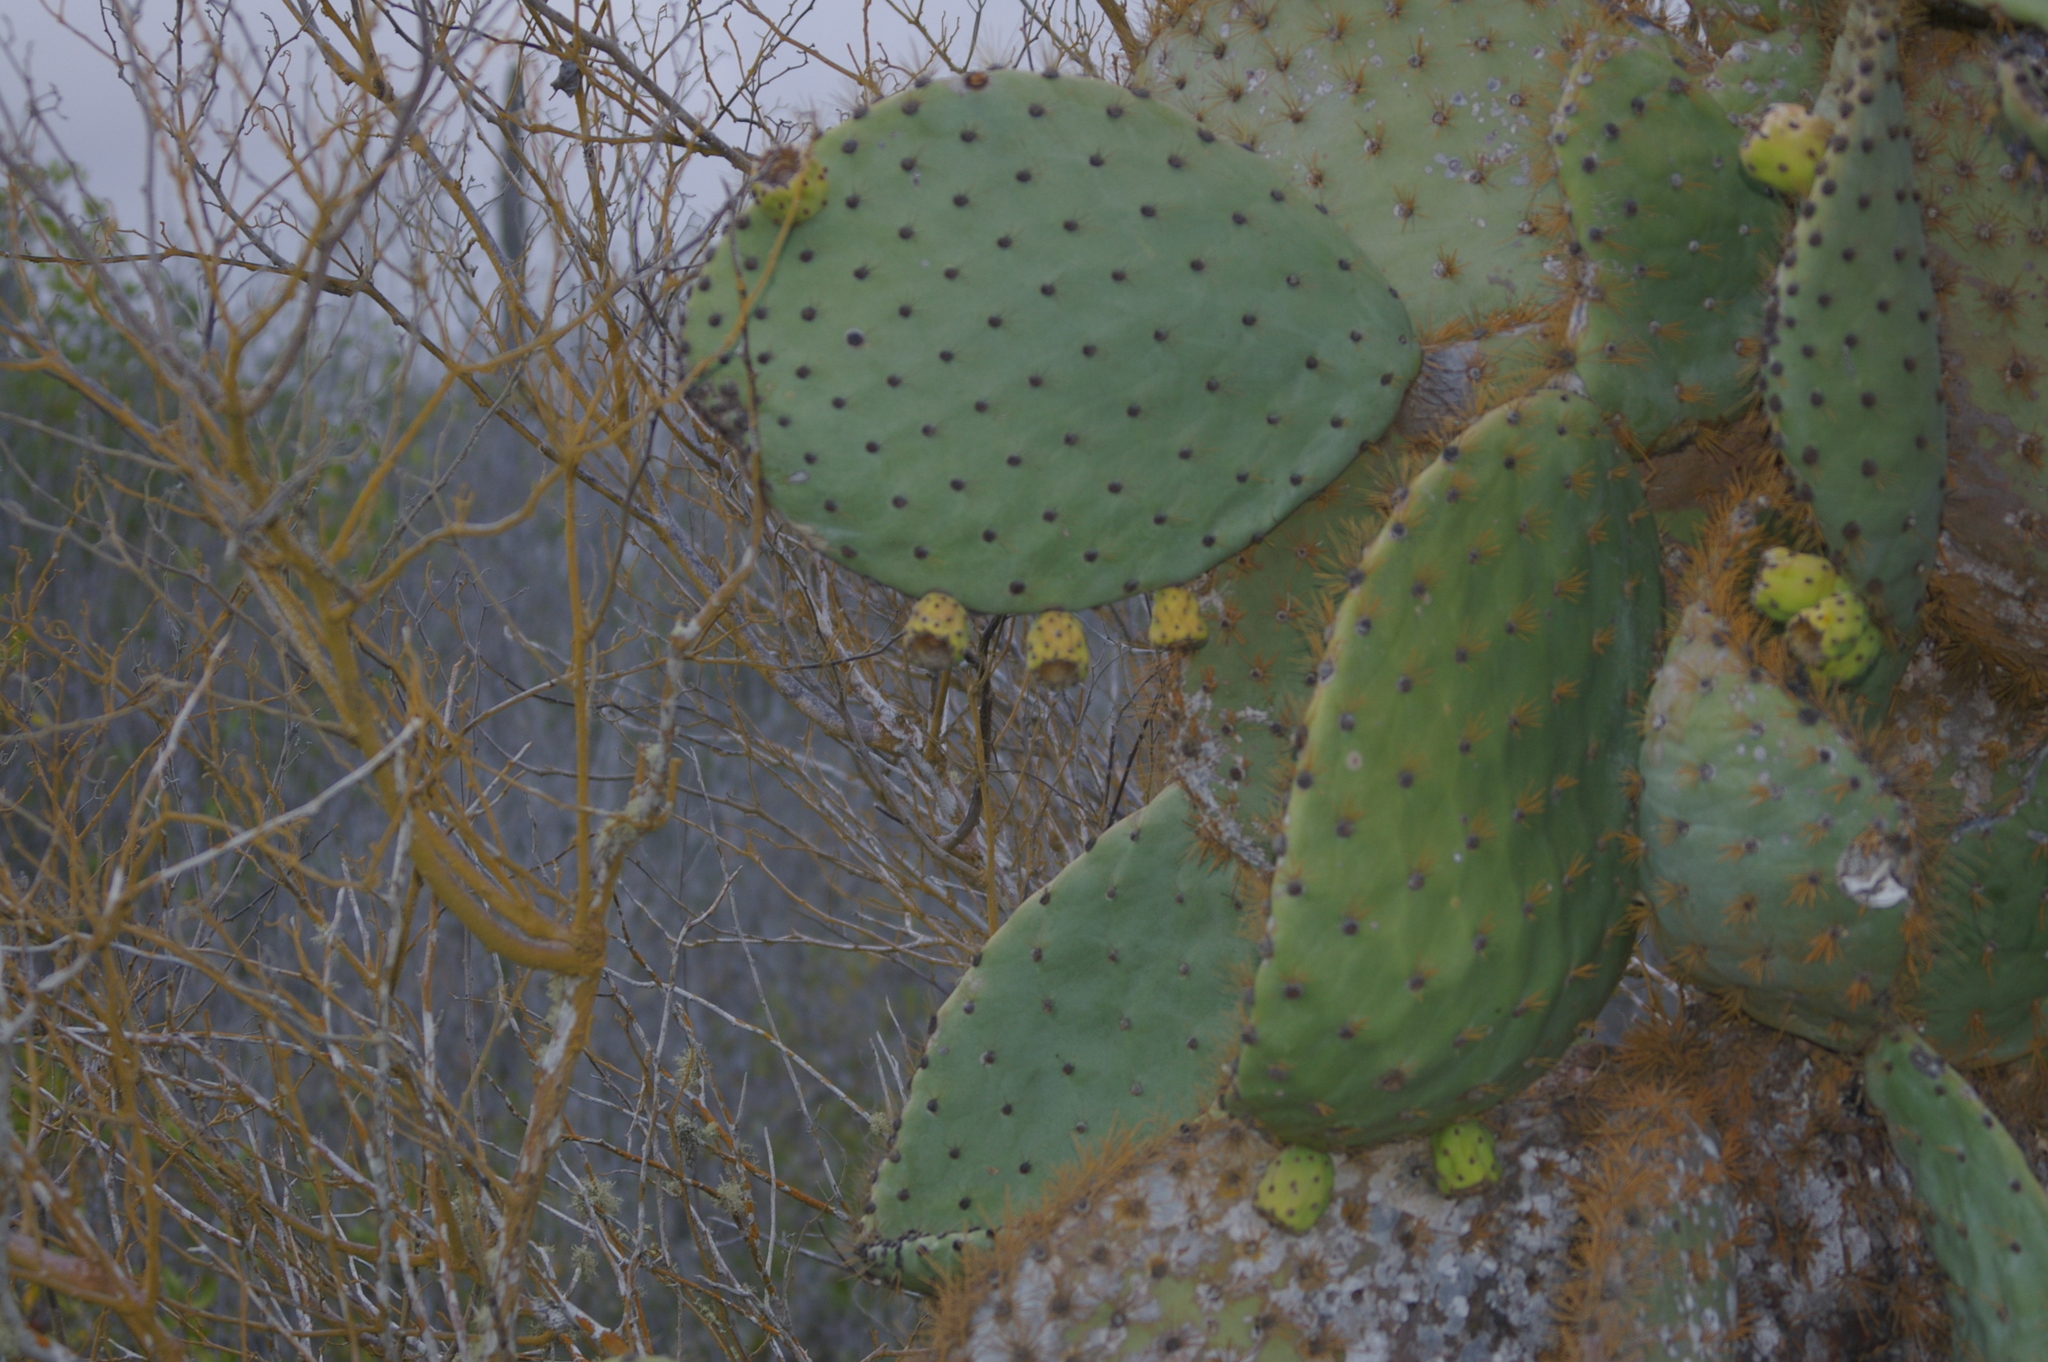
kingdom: Plantae
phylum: Tracheophyta
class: Magnoliopsida
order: Caryophyllales
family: Cactaceae
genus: Opuntia
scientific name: Opuntia galapageia
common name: Galápagos prickly pear
